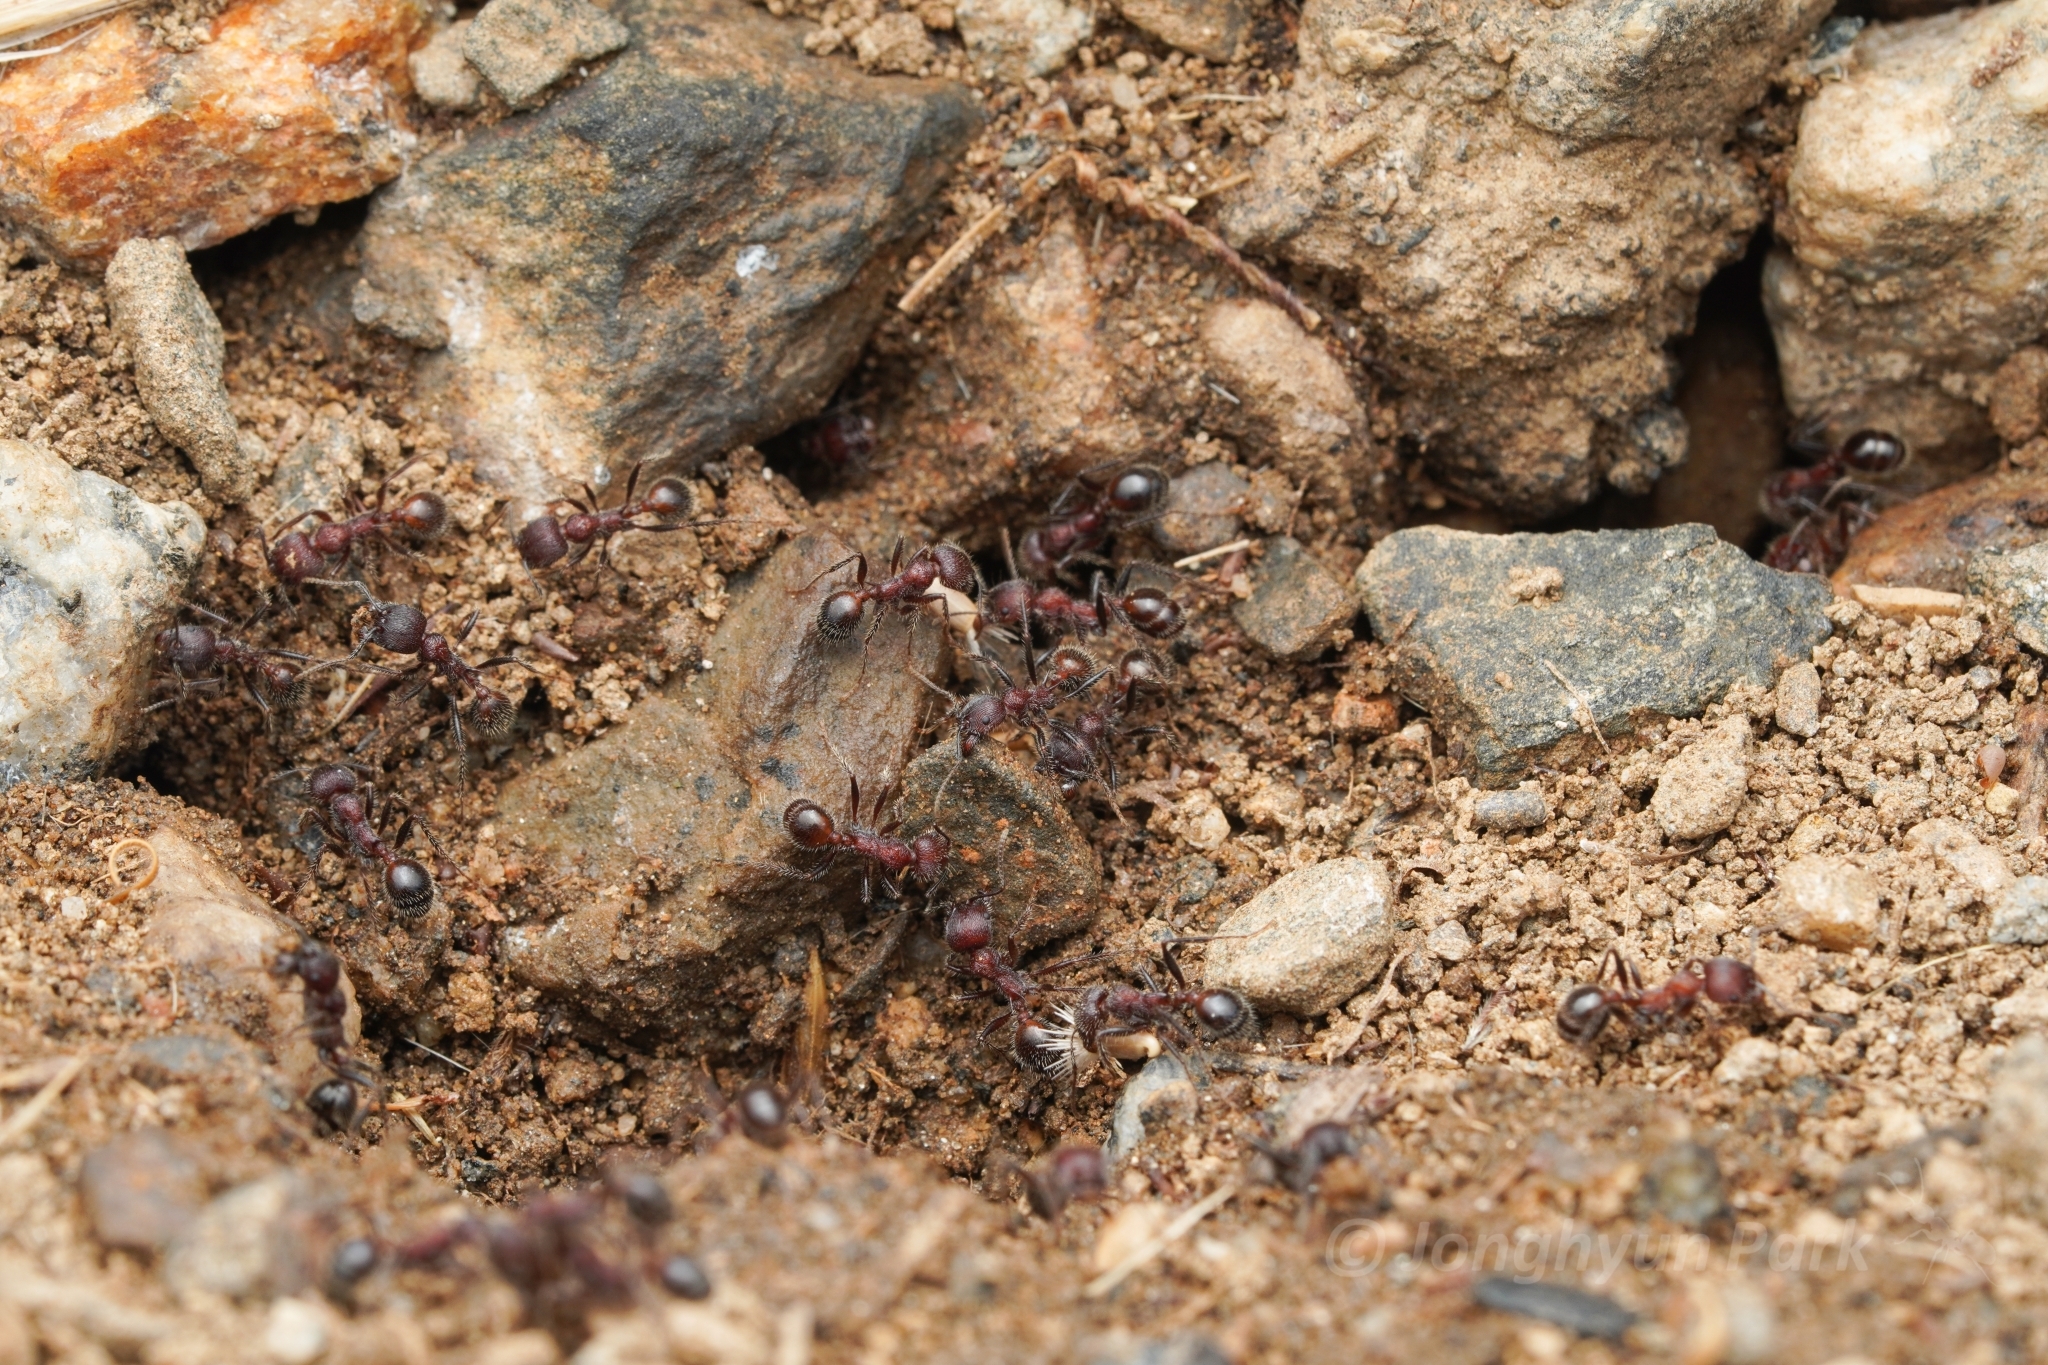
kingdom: Animalia
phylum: Arthropoda
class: Insecta
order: Hymenoptera
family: Formicidae
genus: Veromessor
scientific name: Veromessor andrei
